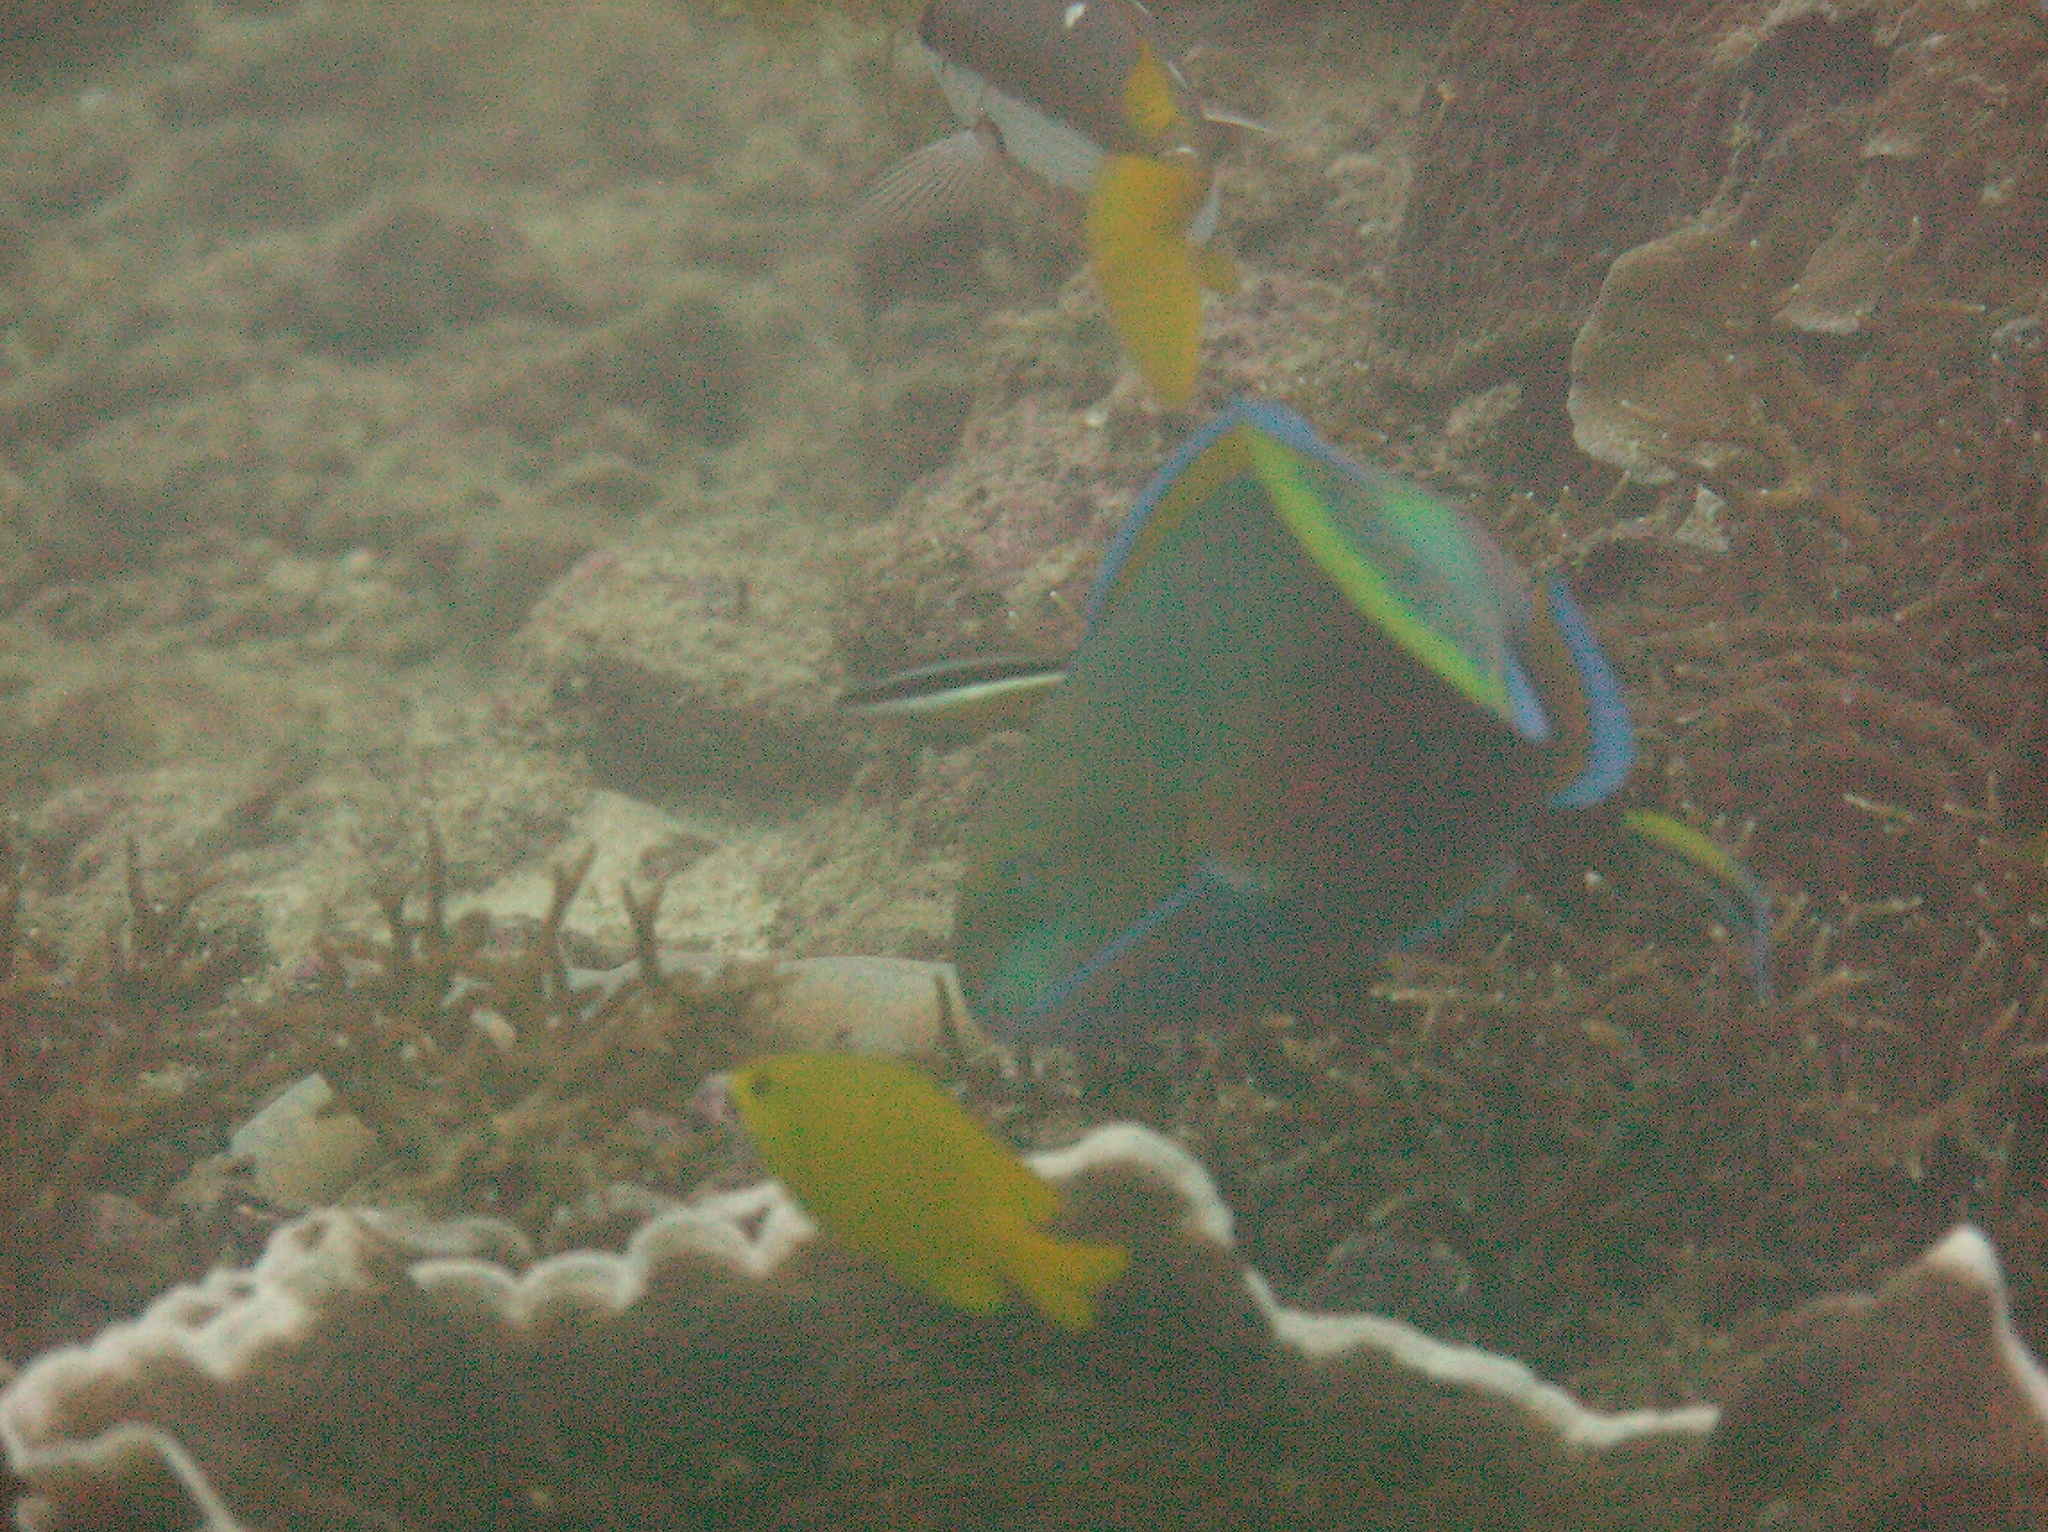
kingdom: Animalia
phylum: Chordata
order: Perciformes
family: Scaridae
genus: Scarus
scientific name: Scarus quoyi
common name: Quoy's parrotfish
